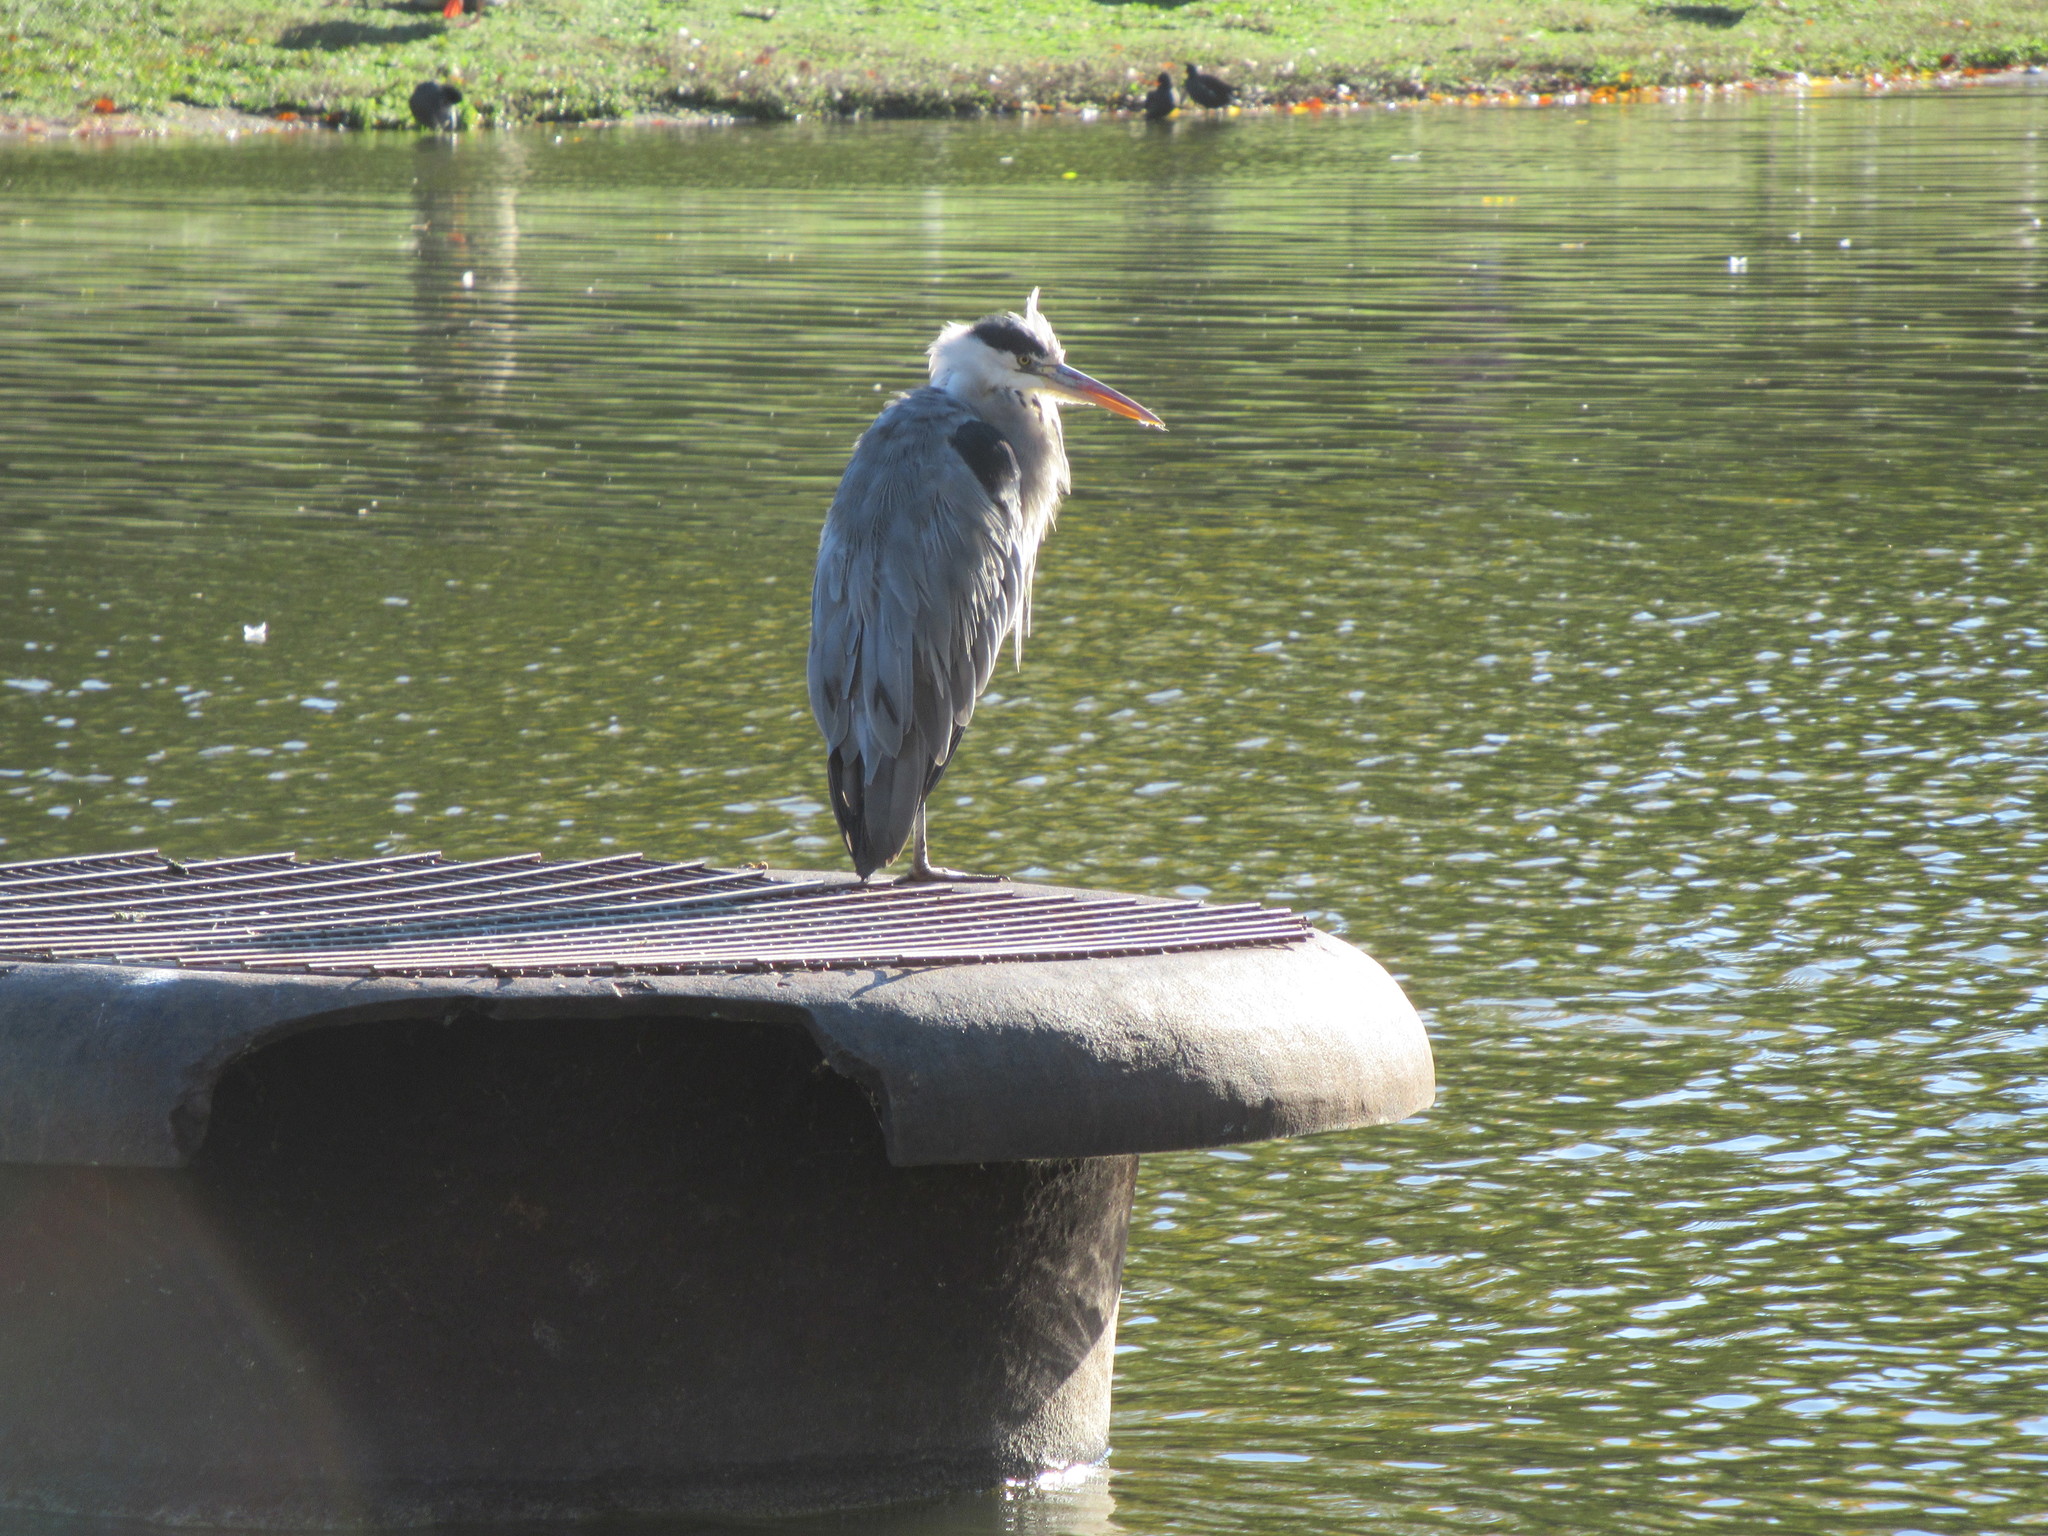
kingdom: Animalia
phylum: Chordata
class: Aves
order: Pelecaniformes
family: Ardeidae
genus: Ardea
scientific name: Ardea cinerea
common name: Grey heron
